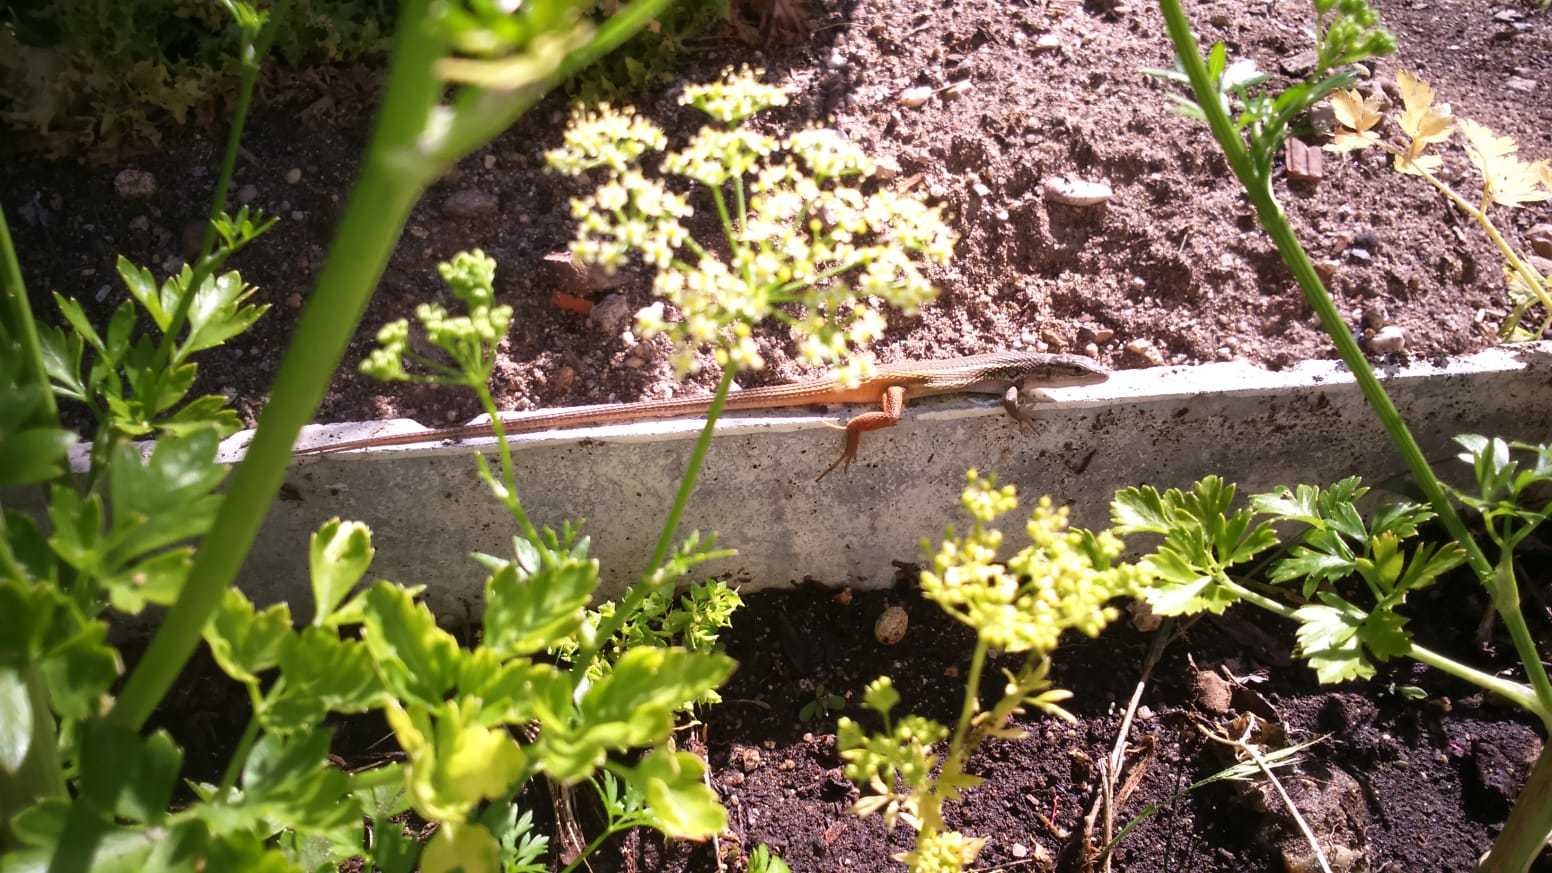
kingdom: Animalia
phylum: Chordata
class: Squamata
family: Lacertidae
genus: Psammodromus
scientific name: Psammodromus algirus
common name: Algerian psammodromus
